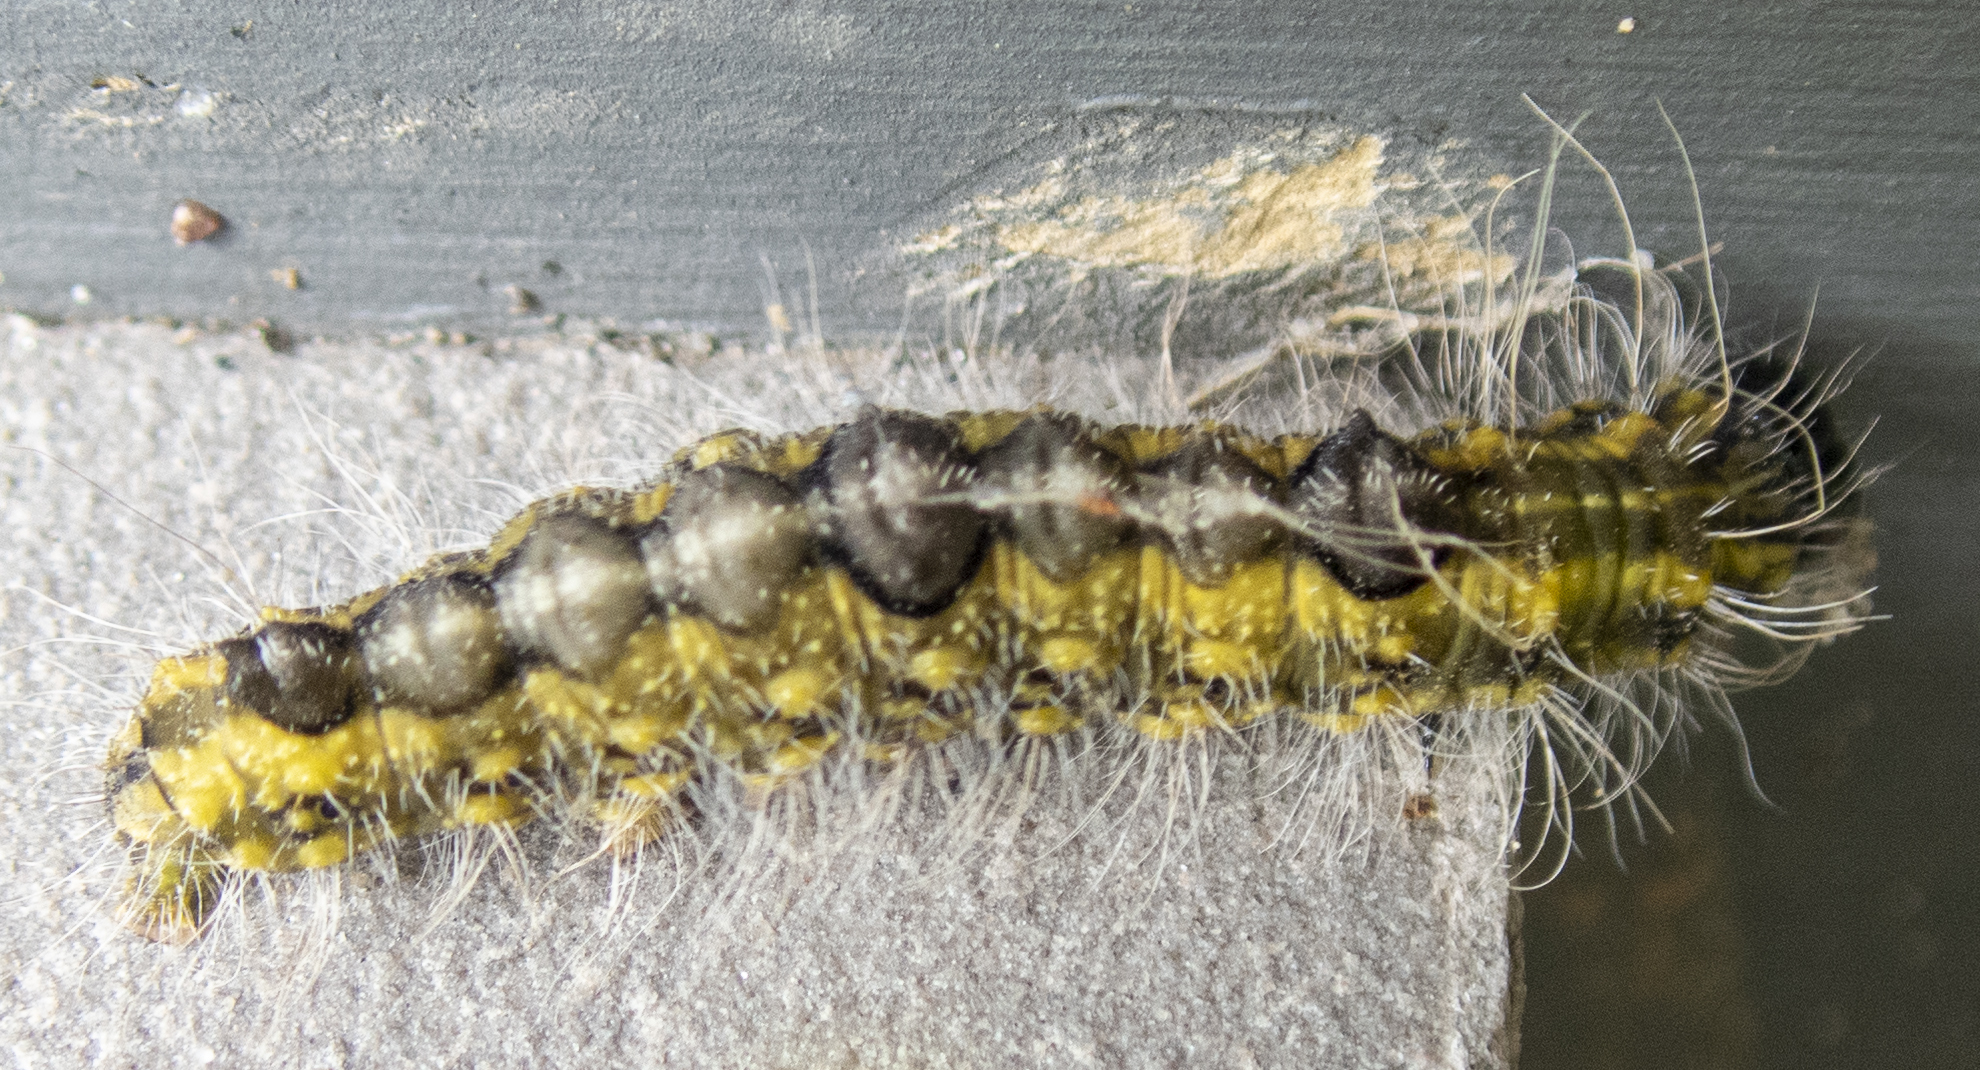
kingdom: Animalia
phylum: Arthropoda
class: Insecta
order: Lepidoptera
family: Noctuidae
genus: Acronicta
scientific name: Acronicta morula
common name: Ochre dagger
